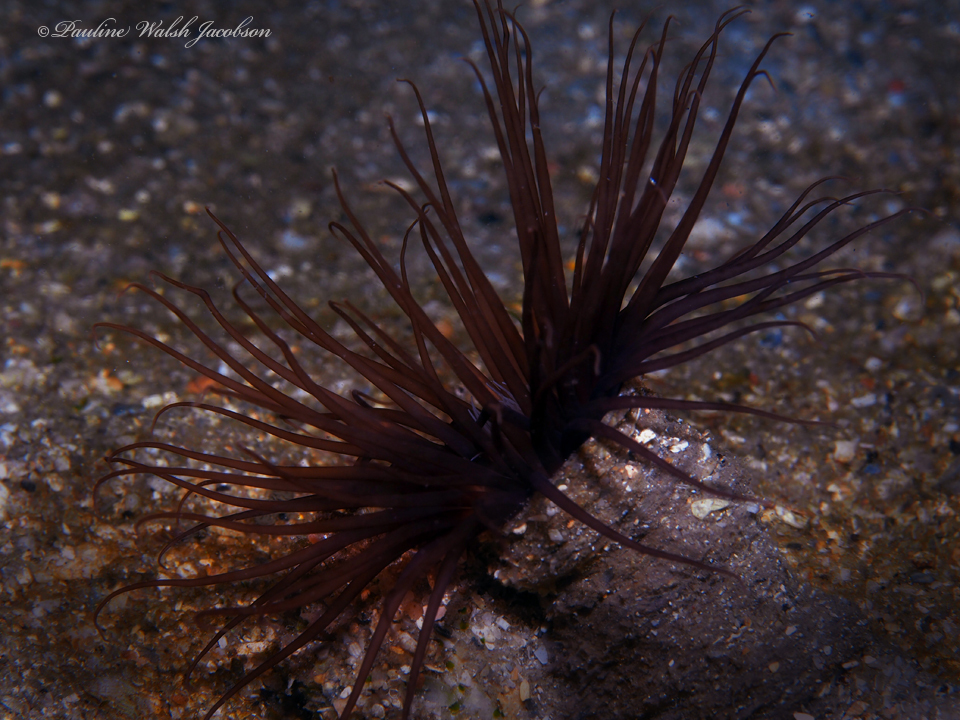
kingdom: Animalia
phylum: Cnidaria
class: Anthozoa
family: Cerianthidae
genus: Ceriantheopsis
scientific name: Ceriantheopsis americana
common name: American tube-dwelling anemone
